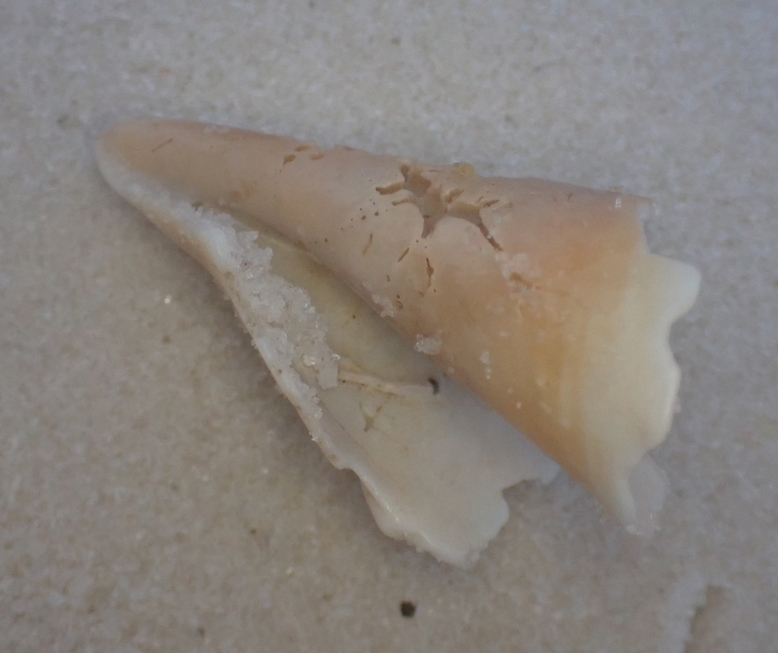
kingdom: Animalia
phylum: Mollusca
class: Gastropoda
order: Littorinimorpha
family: Strombidae
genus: Strombus
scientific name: Strombus alatus
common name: Florida fighting conch
